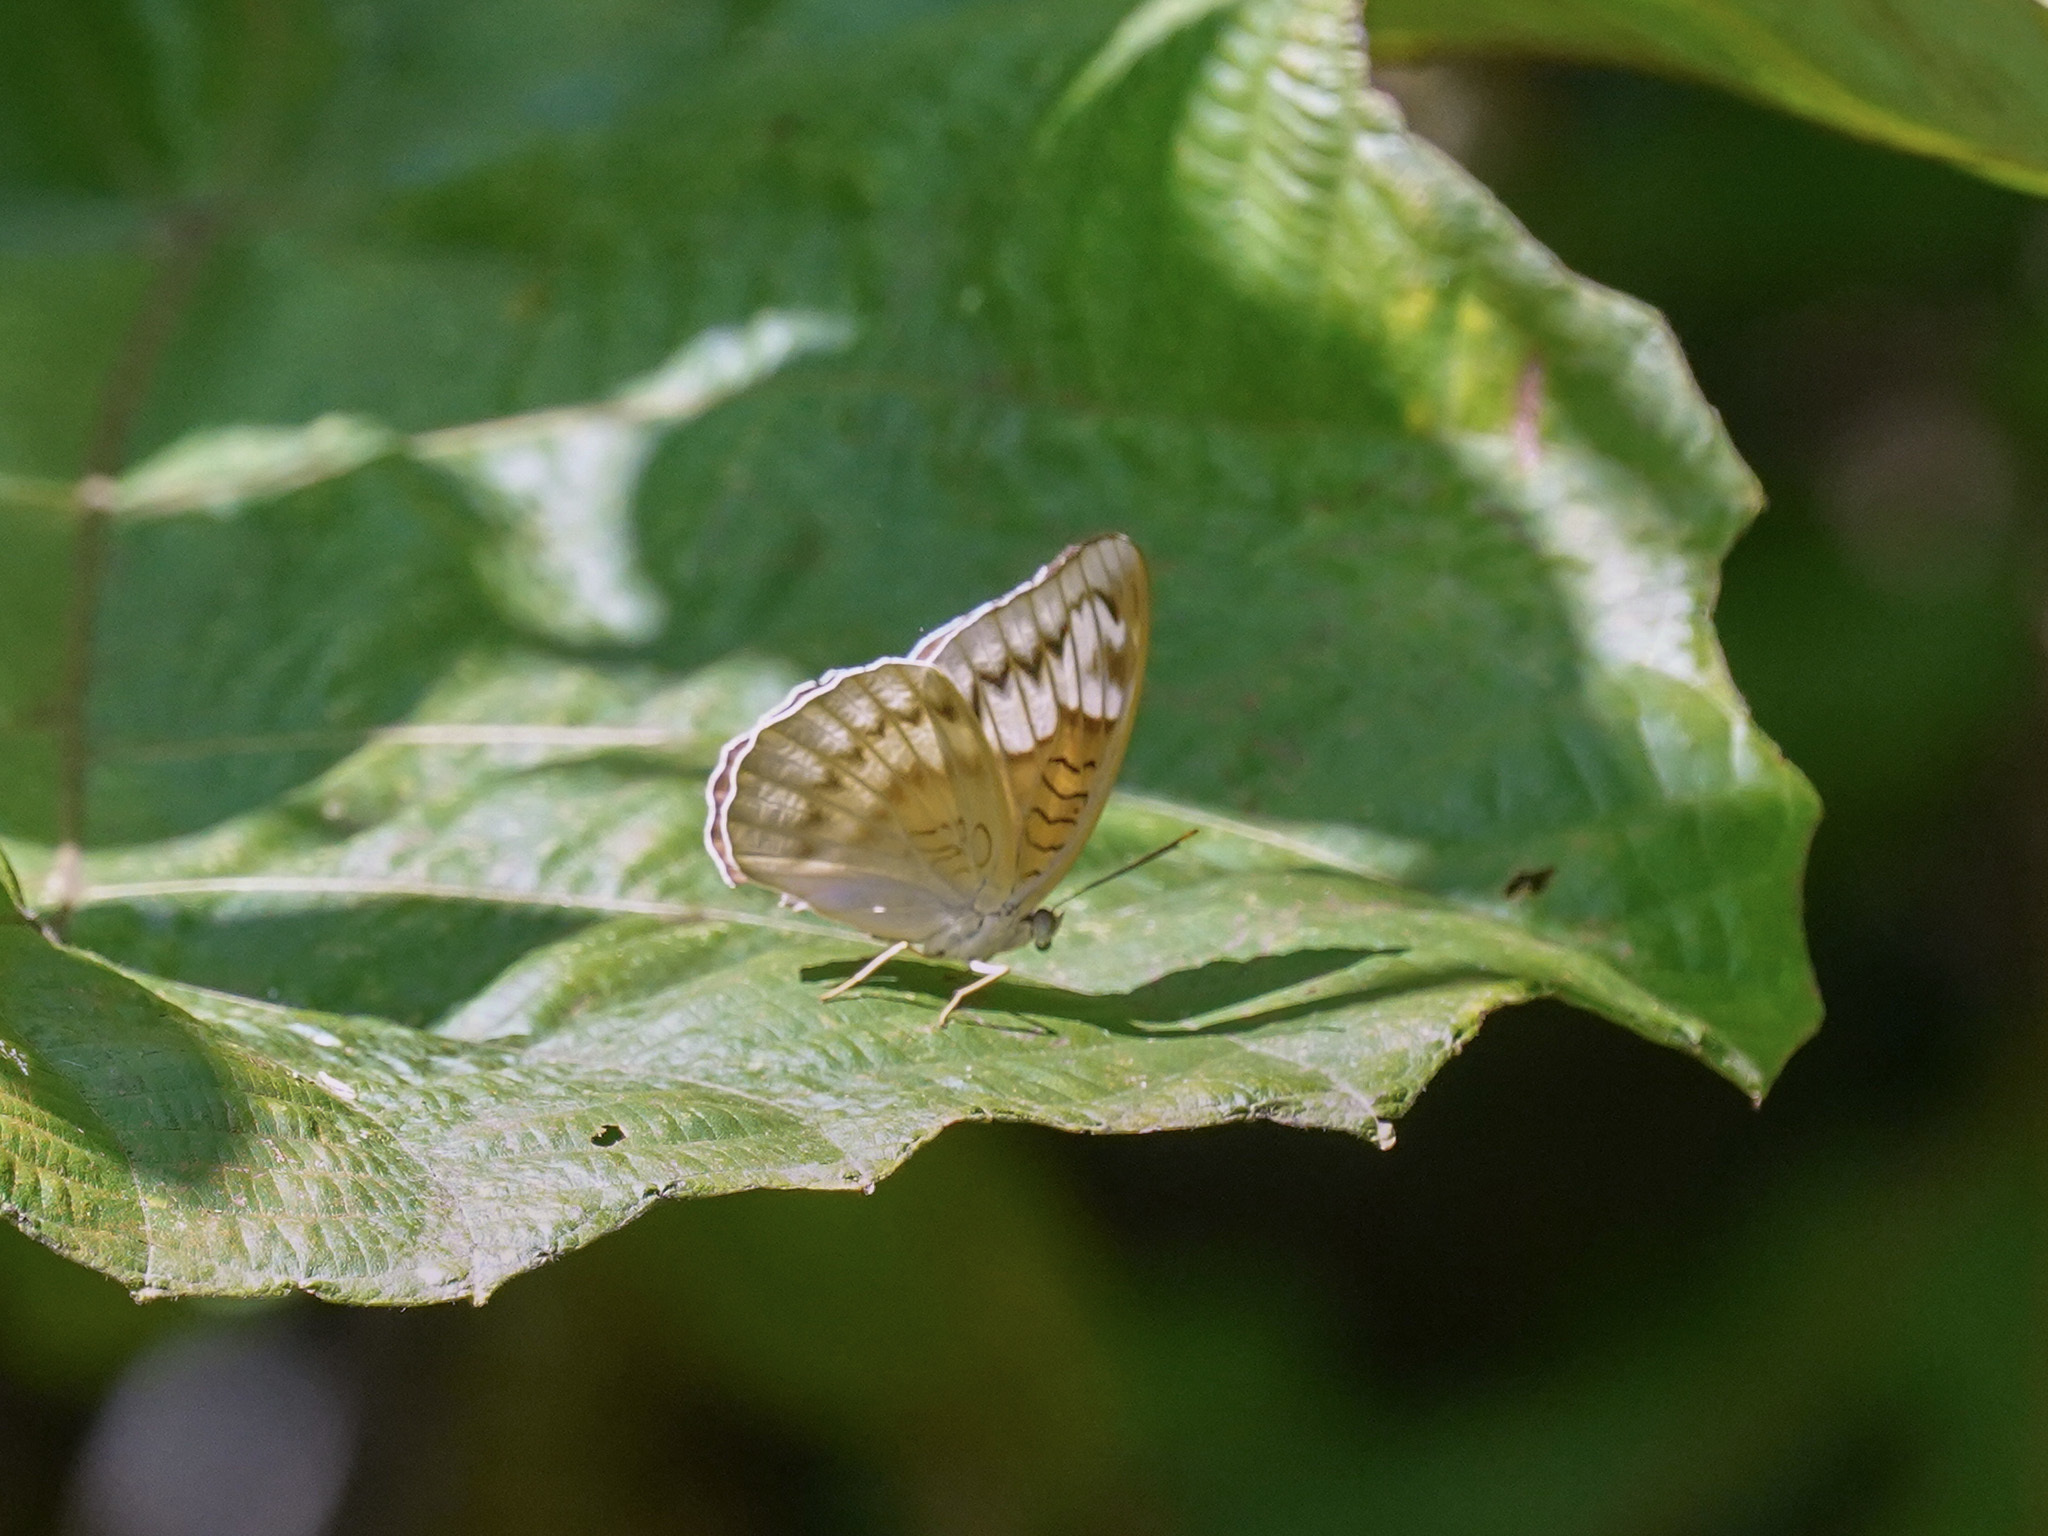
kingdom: Animalia
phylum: Arthropoda
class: Insecta
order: Lepidoptera
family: Nymphalidae
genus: Tanaecia
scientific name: Tanaecia iapis
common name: Horsfield's baron
